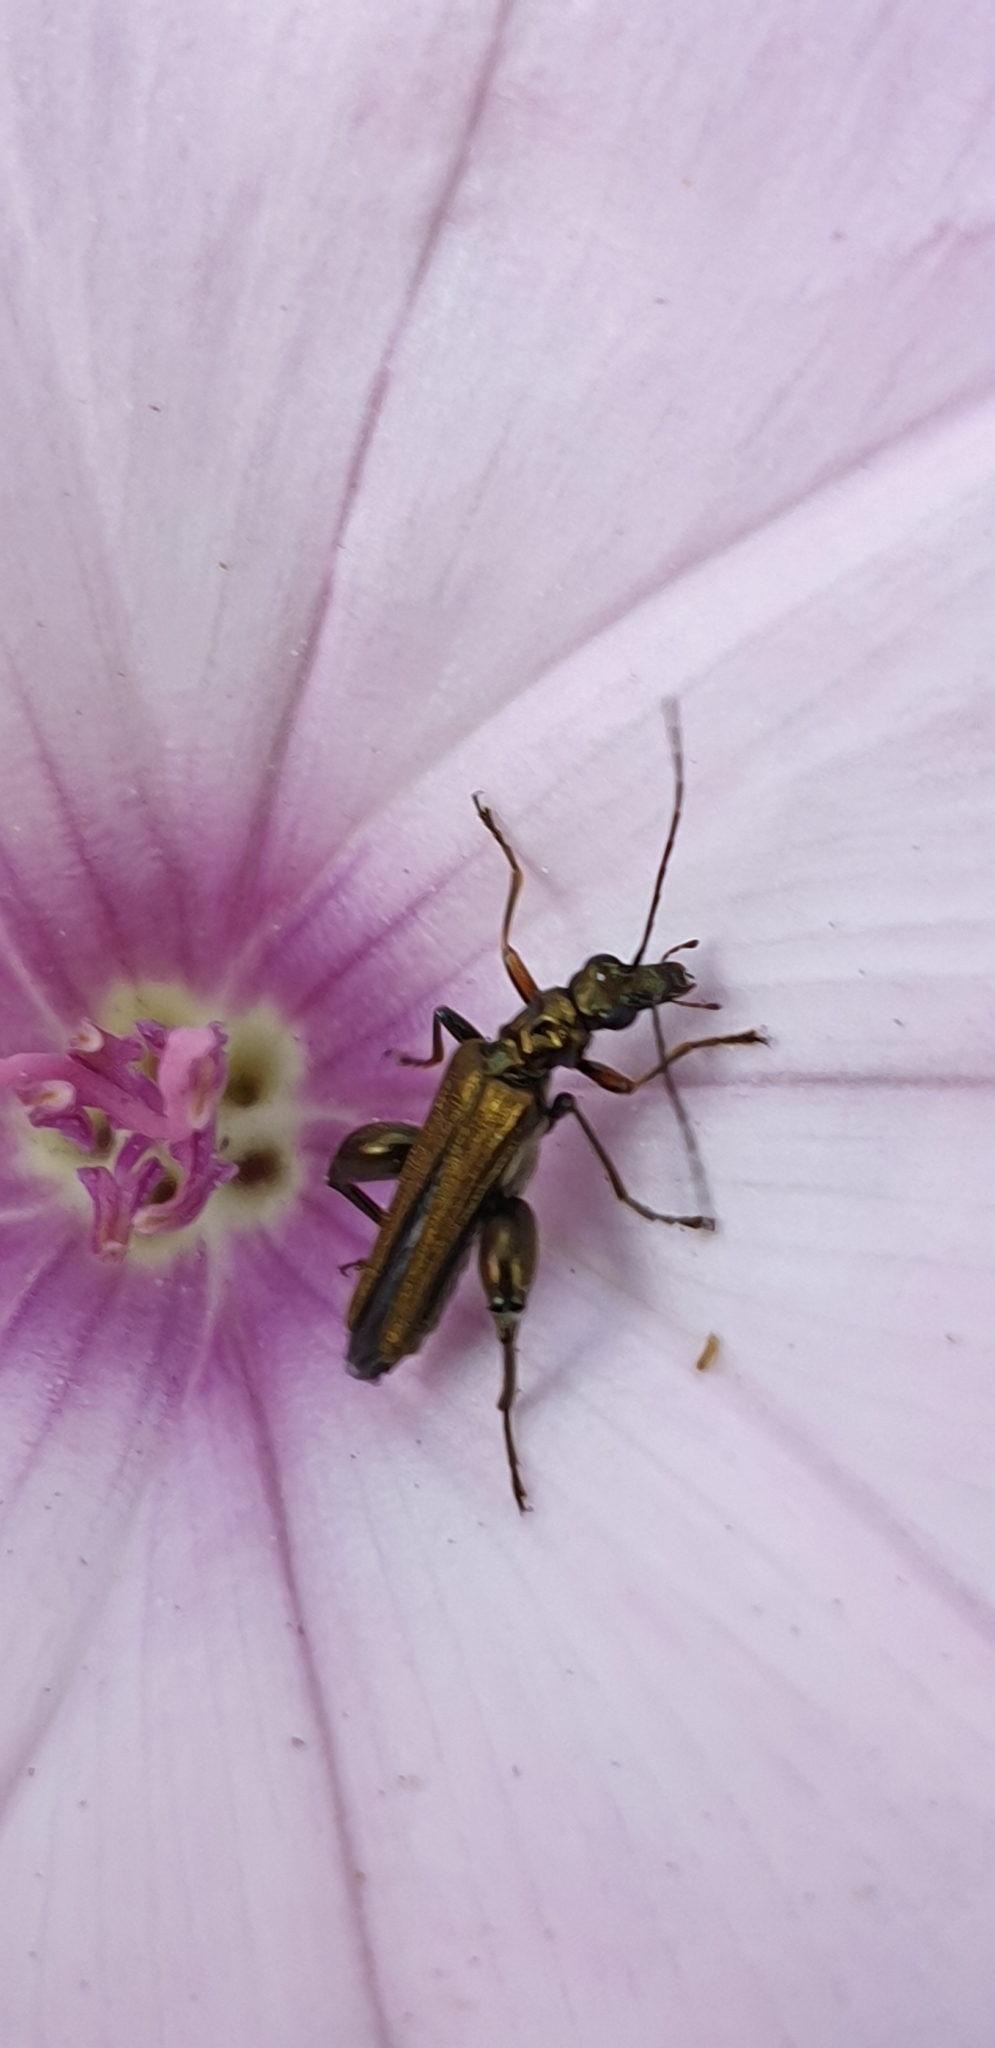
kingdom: Animalia
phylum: Arthropoda
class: Insecta
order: Coleoptera
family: Oedemeridae
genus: Oedemera
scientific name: Oedemera nobilis
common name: Swollen-thighed beetle
